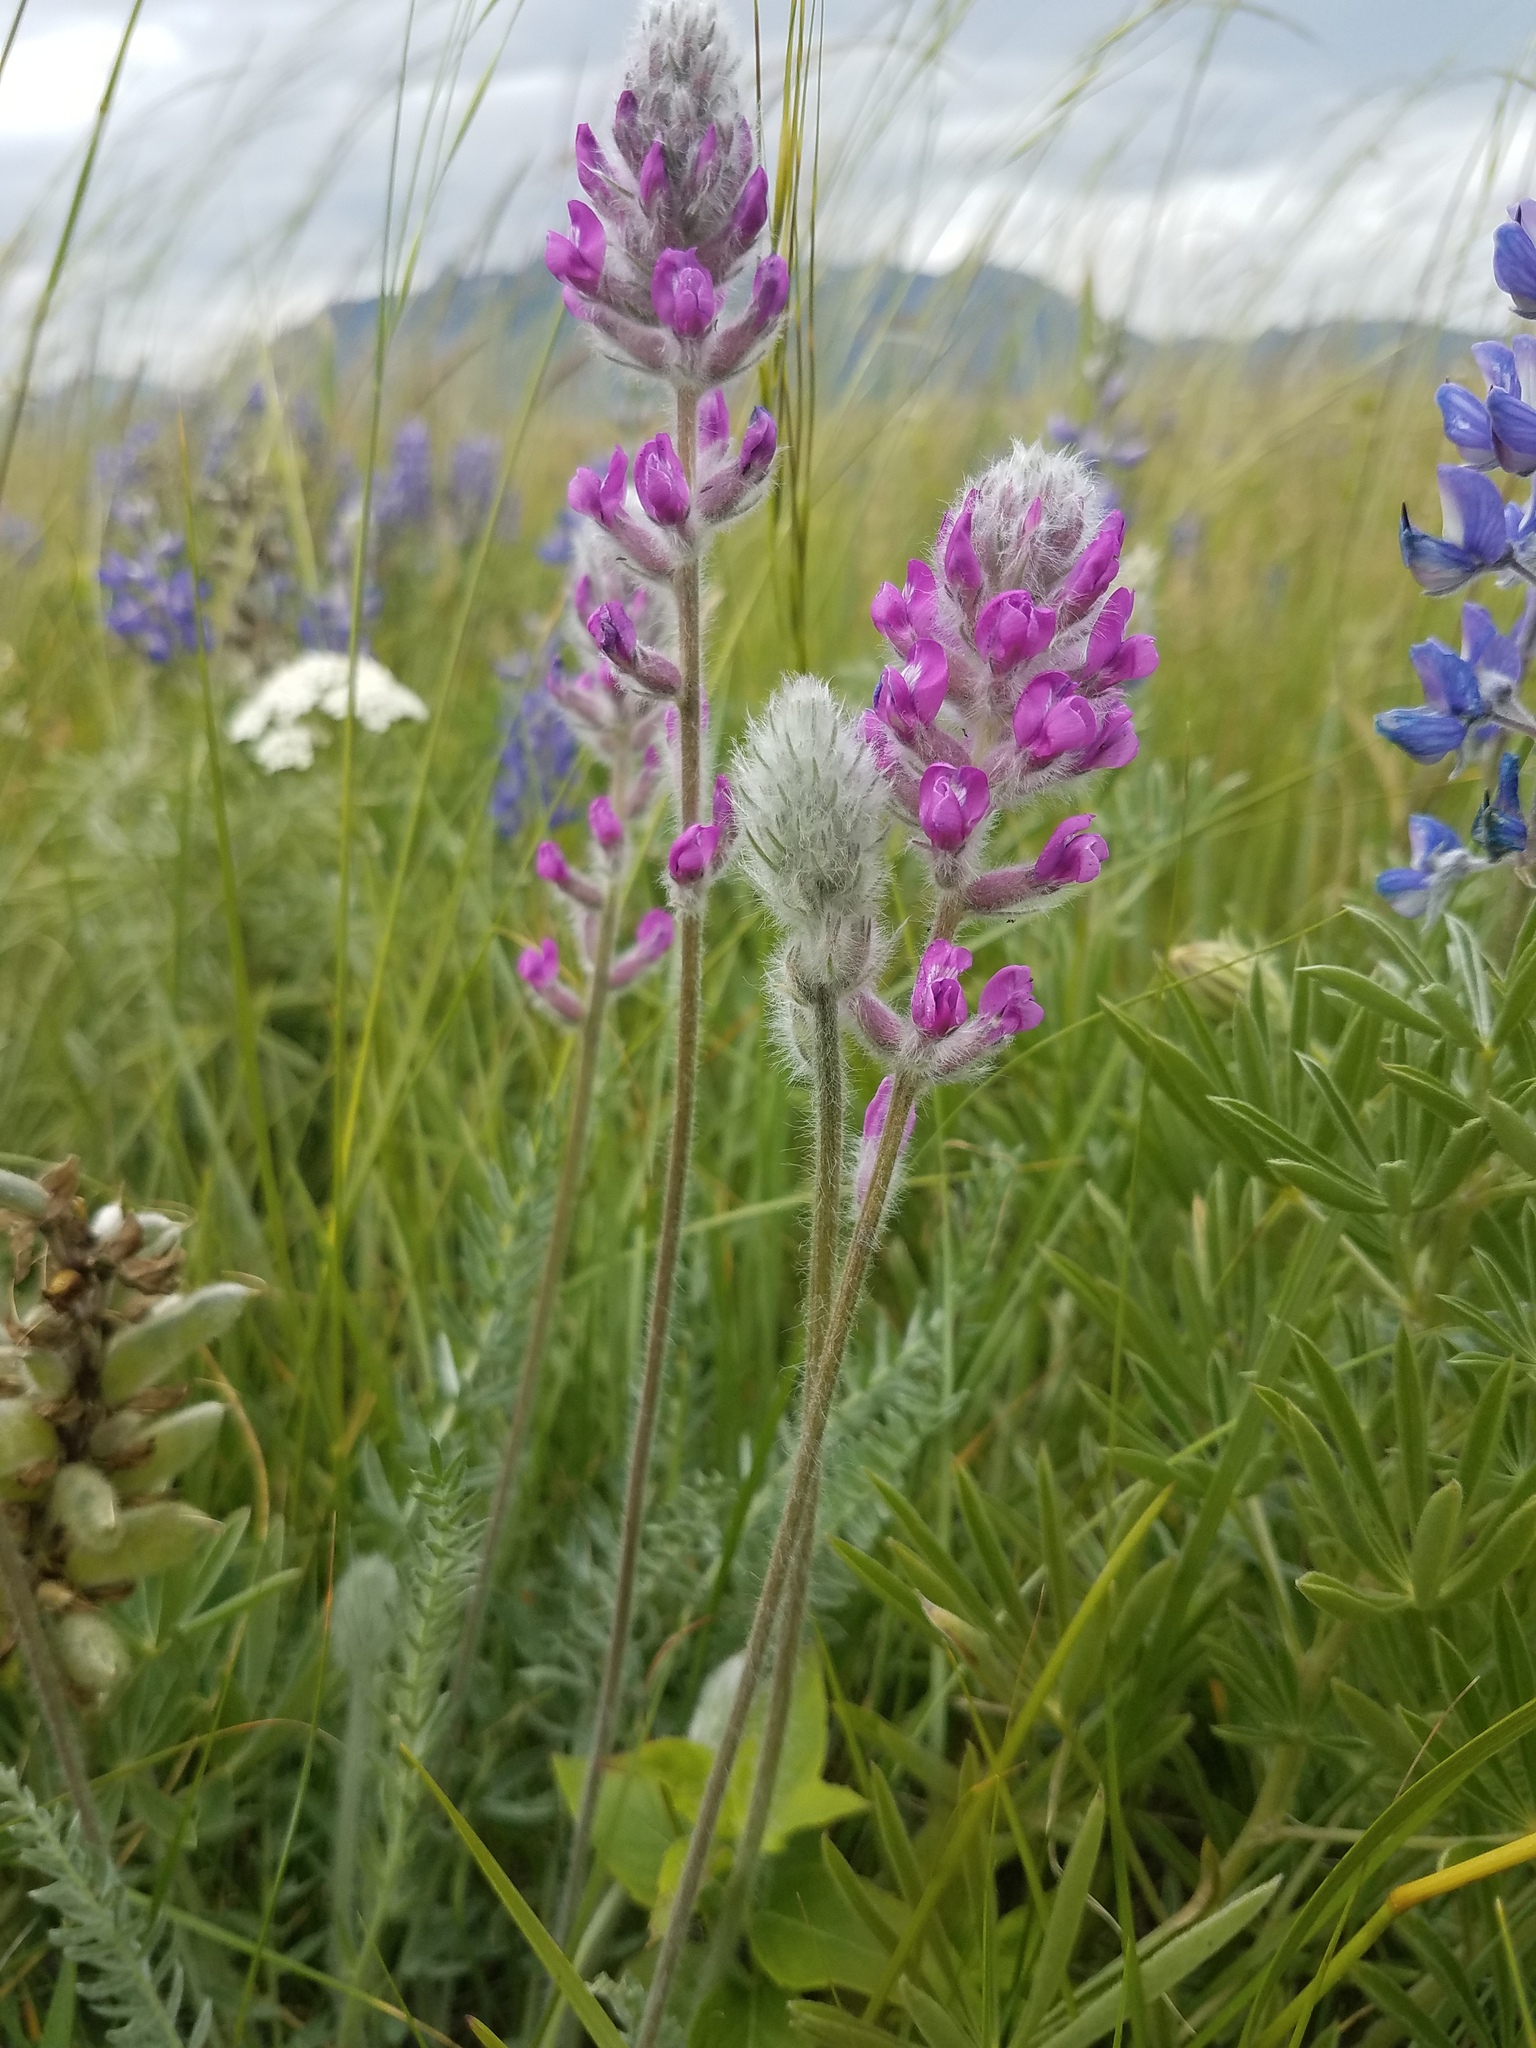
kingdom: Plantae
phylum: Tracheophyta
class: Magnoliopsida
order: Fabales
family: Fabaceae
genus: Oxytropis
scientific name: Oxytropis splendens
